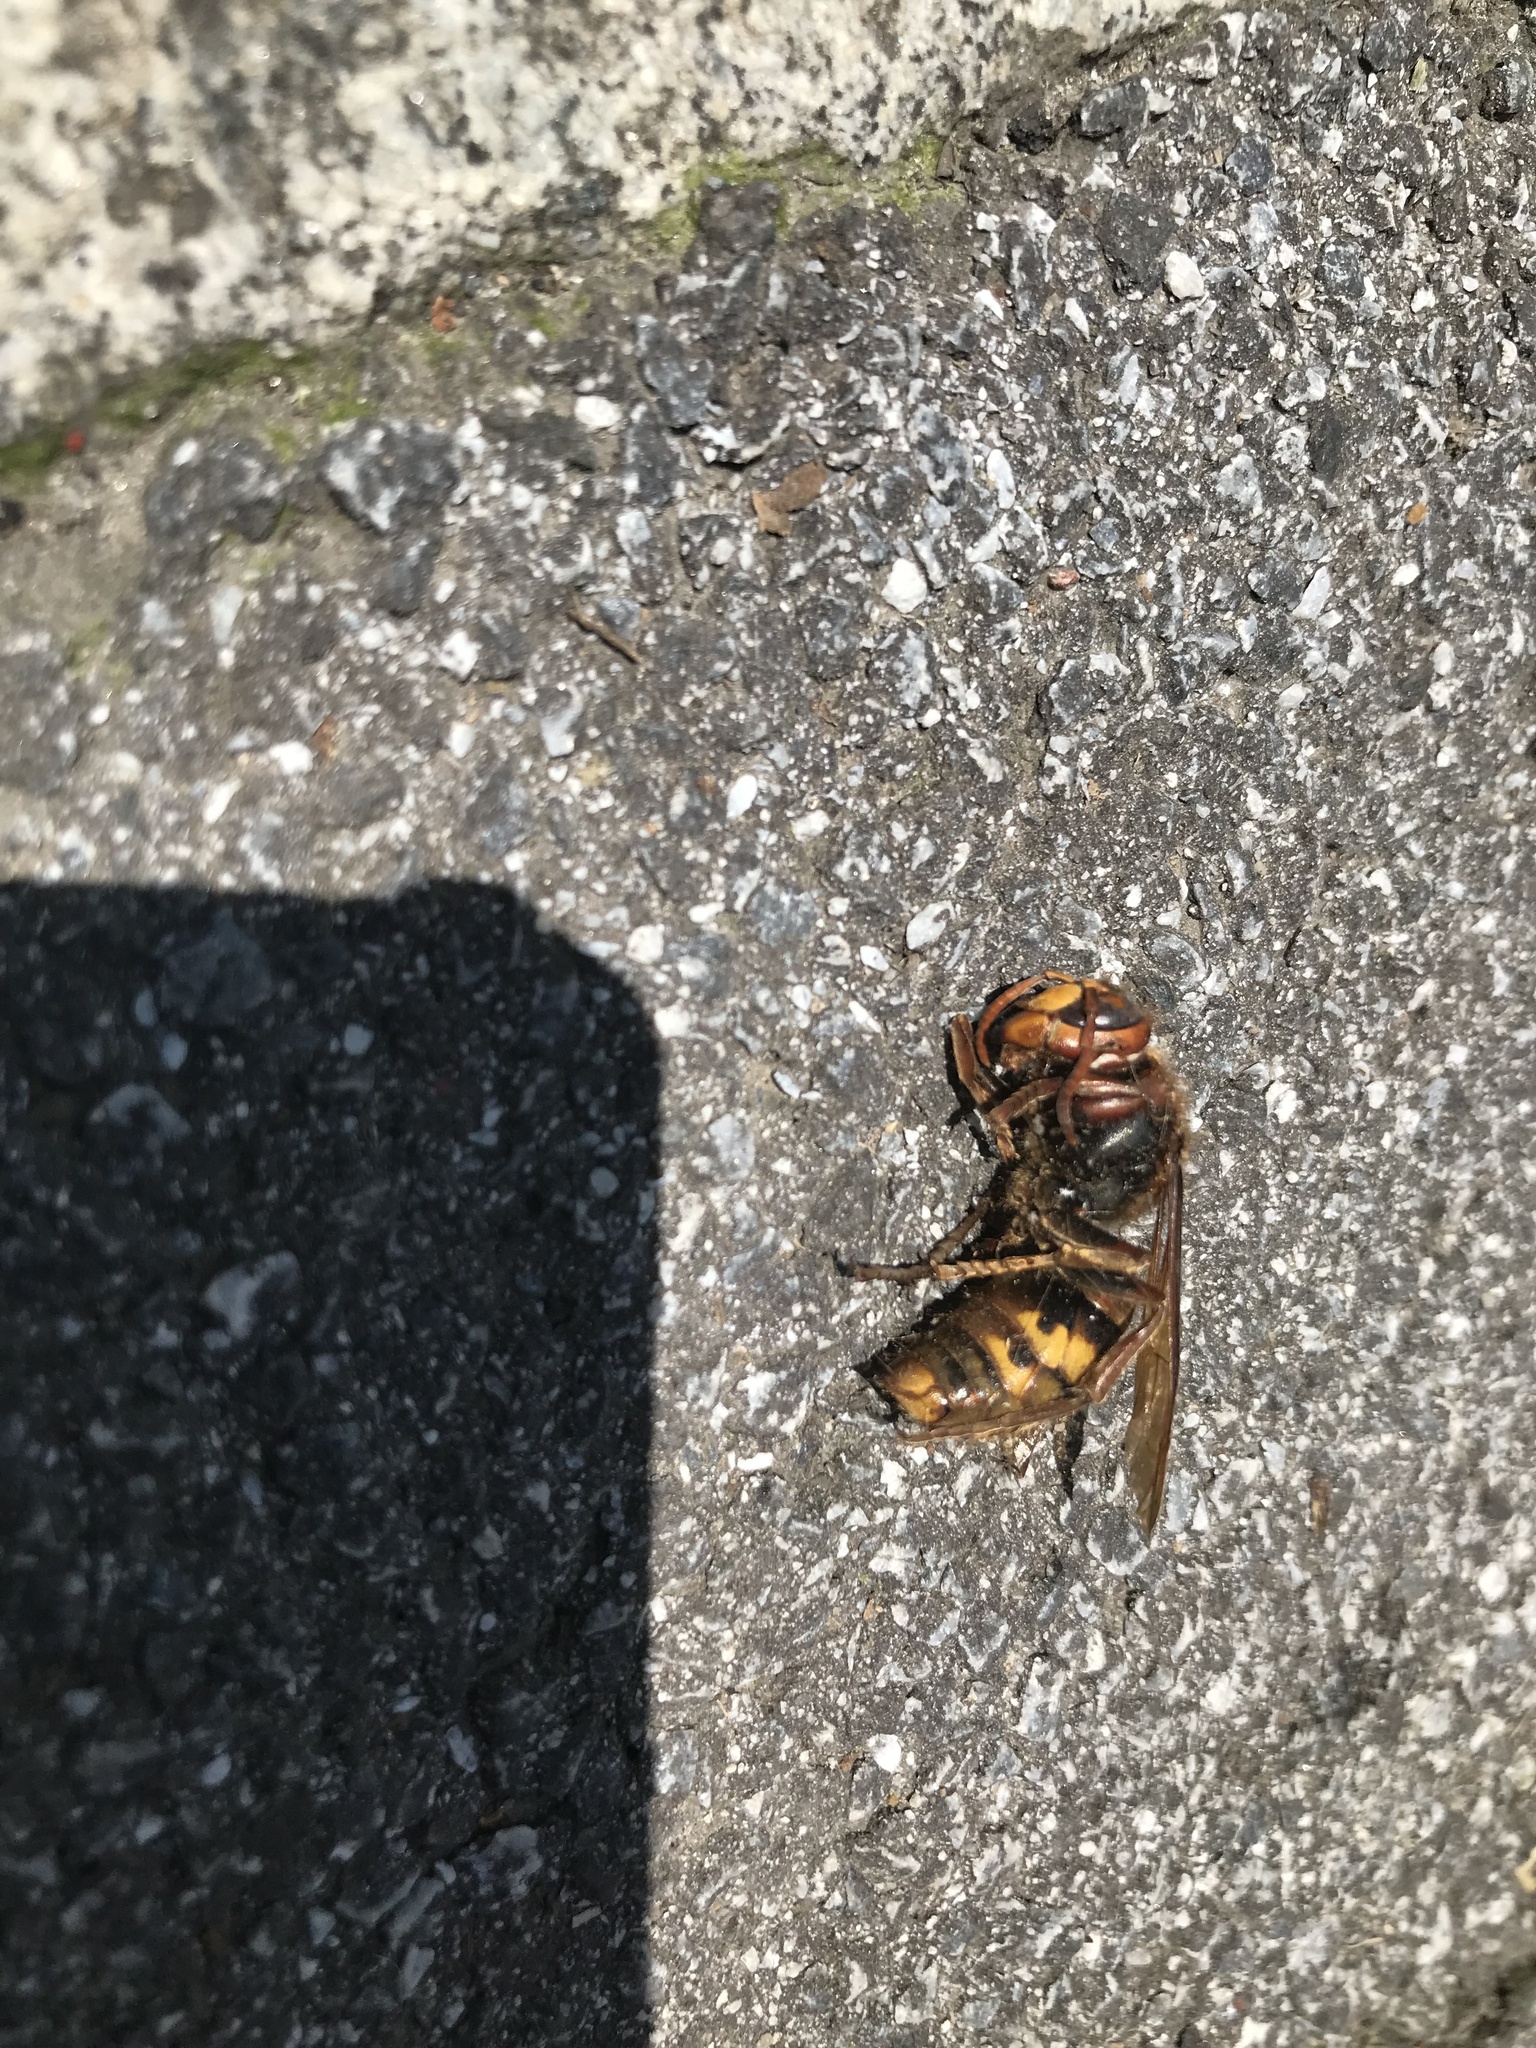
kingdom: Animalia
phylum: Arthropoda
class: Insecta
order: Hymenoptera
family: Vespidae
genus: Vespa
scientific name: Vespa crabro
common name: Hornet
